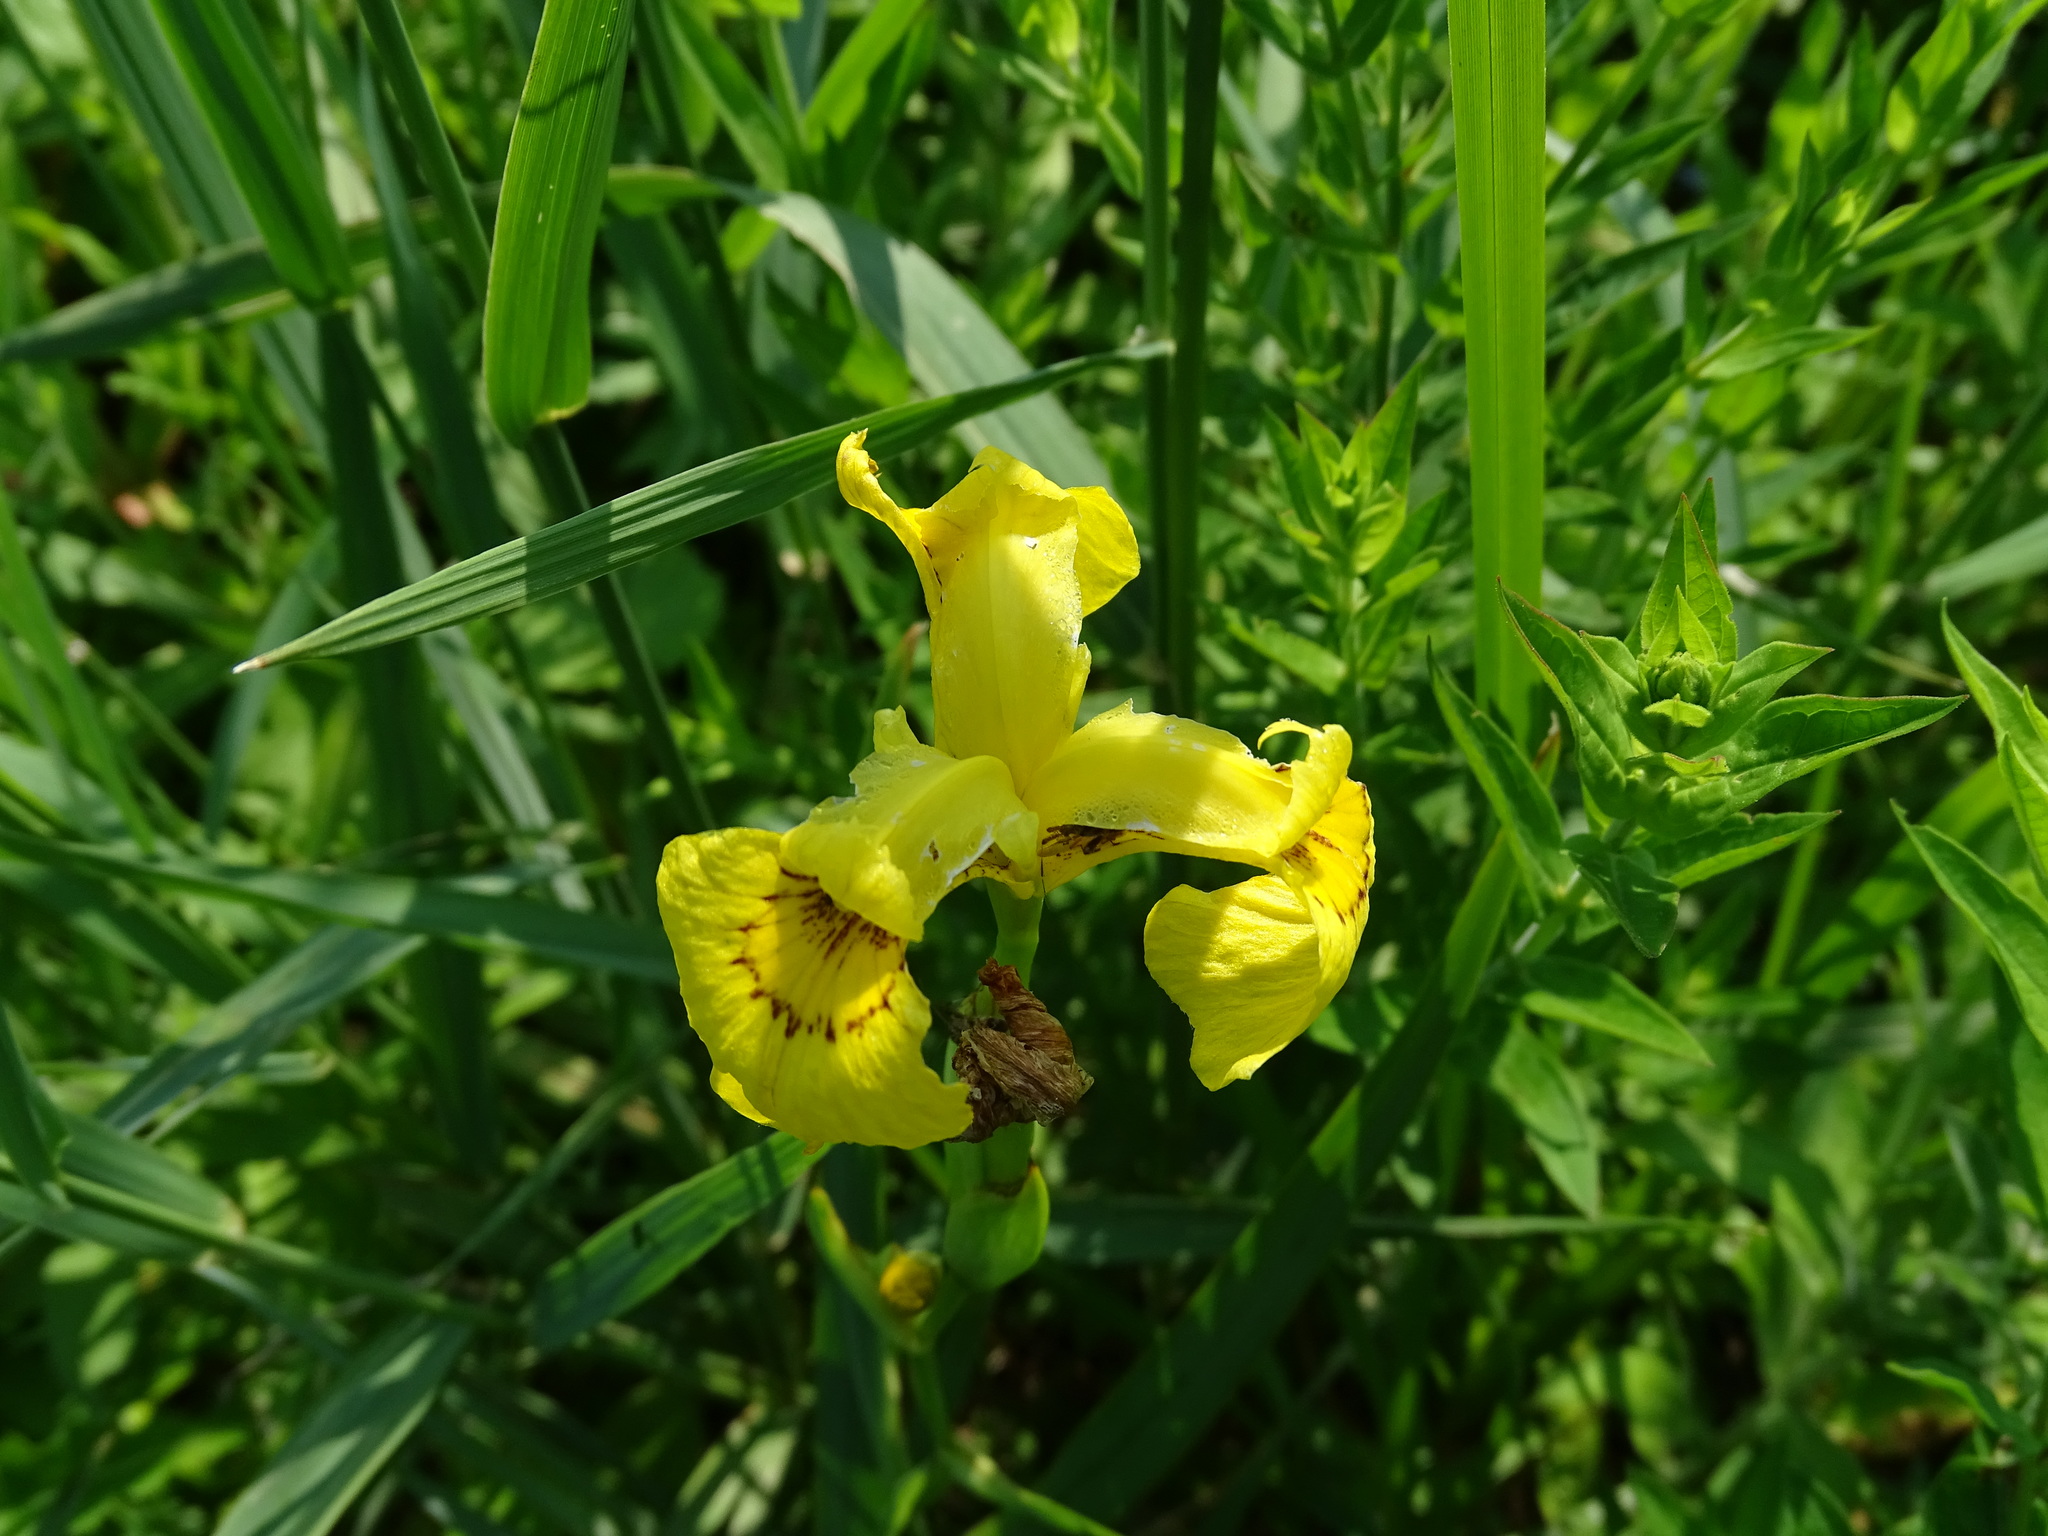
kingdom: Plantae
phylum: Tracheophyta
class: Liliopsida
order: Asparagales
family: Iridaceae
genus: Iris
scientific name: Iris pseudacorus
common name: Yellow flag
